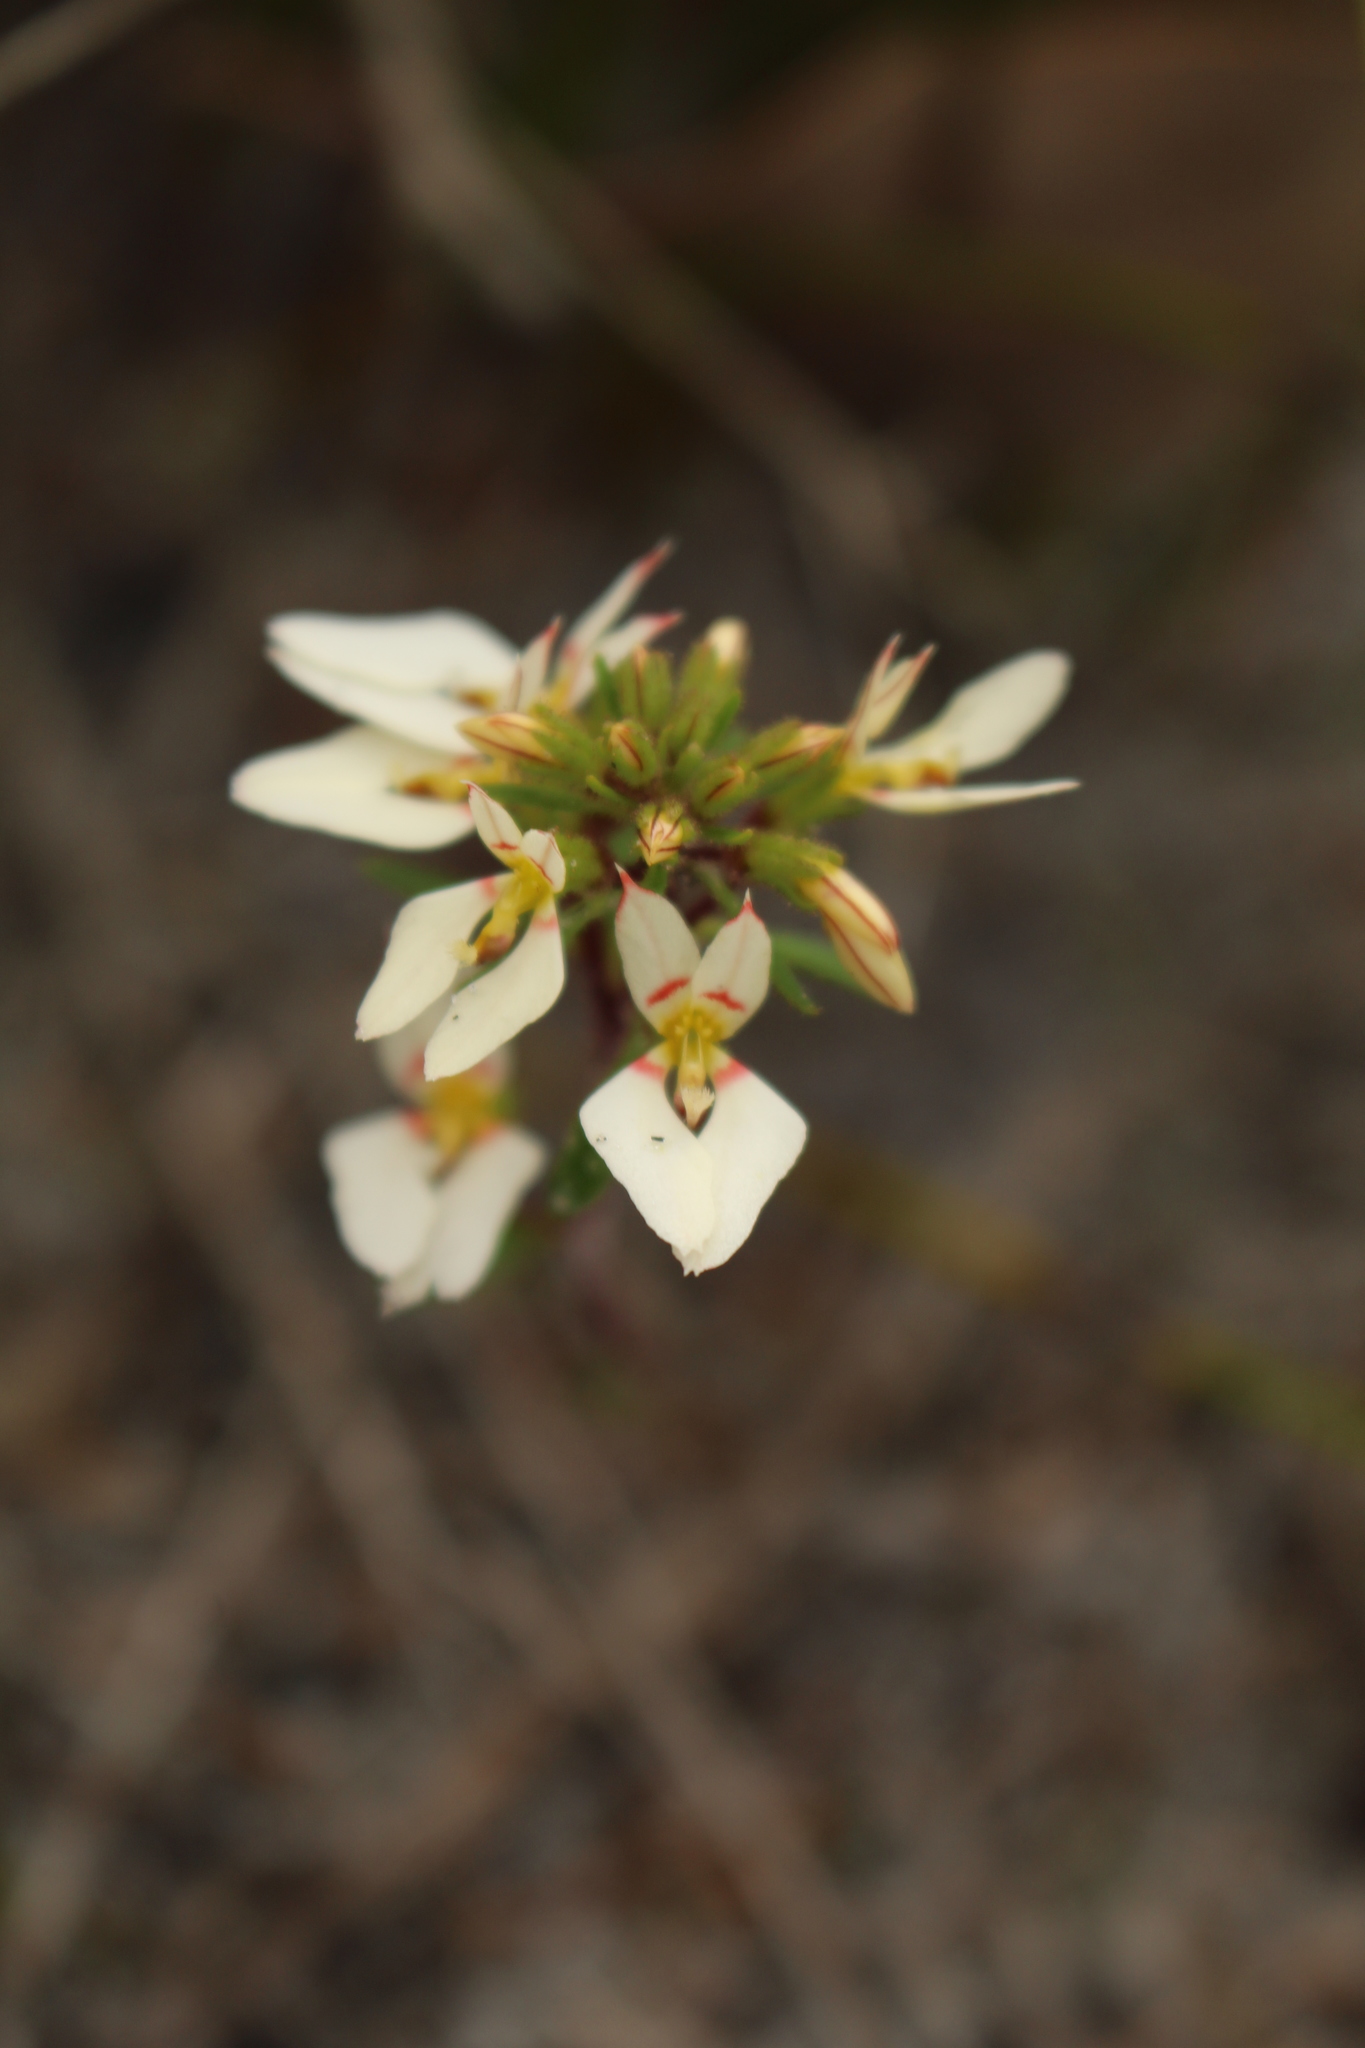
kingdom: Plantae
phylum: Tracheophyta
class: Magnoliopsida
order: Asterales
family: Stylidiaceae
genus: Levenhookia
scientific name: Levenhookia pauciflora
